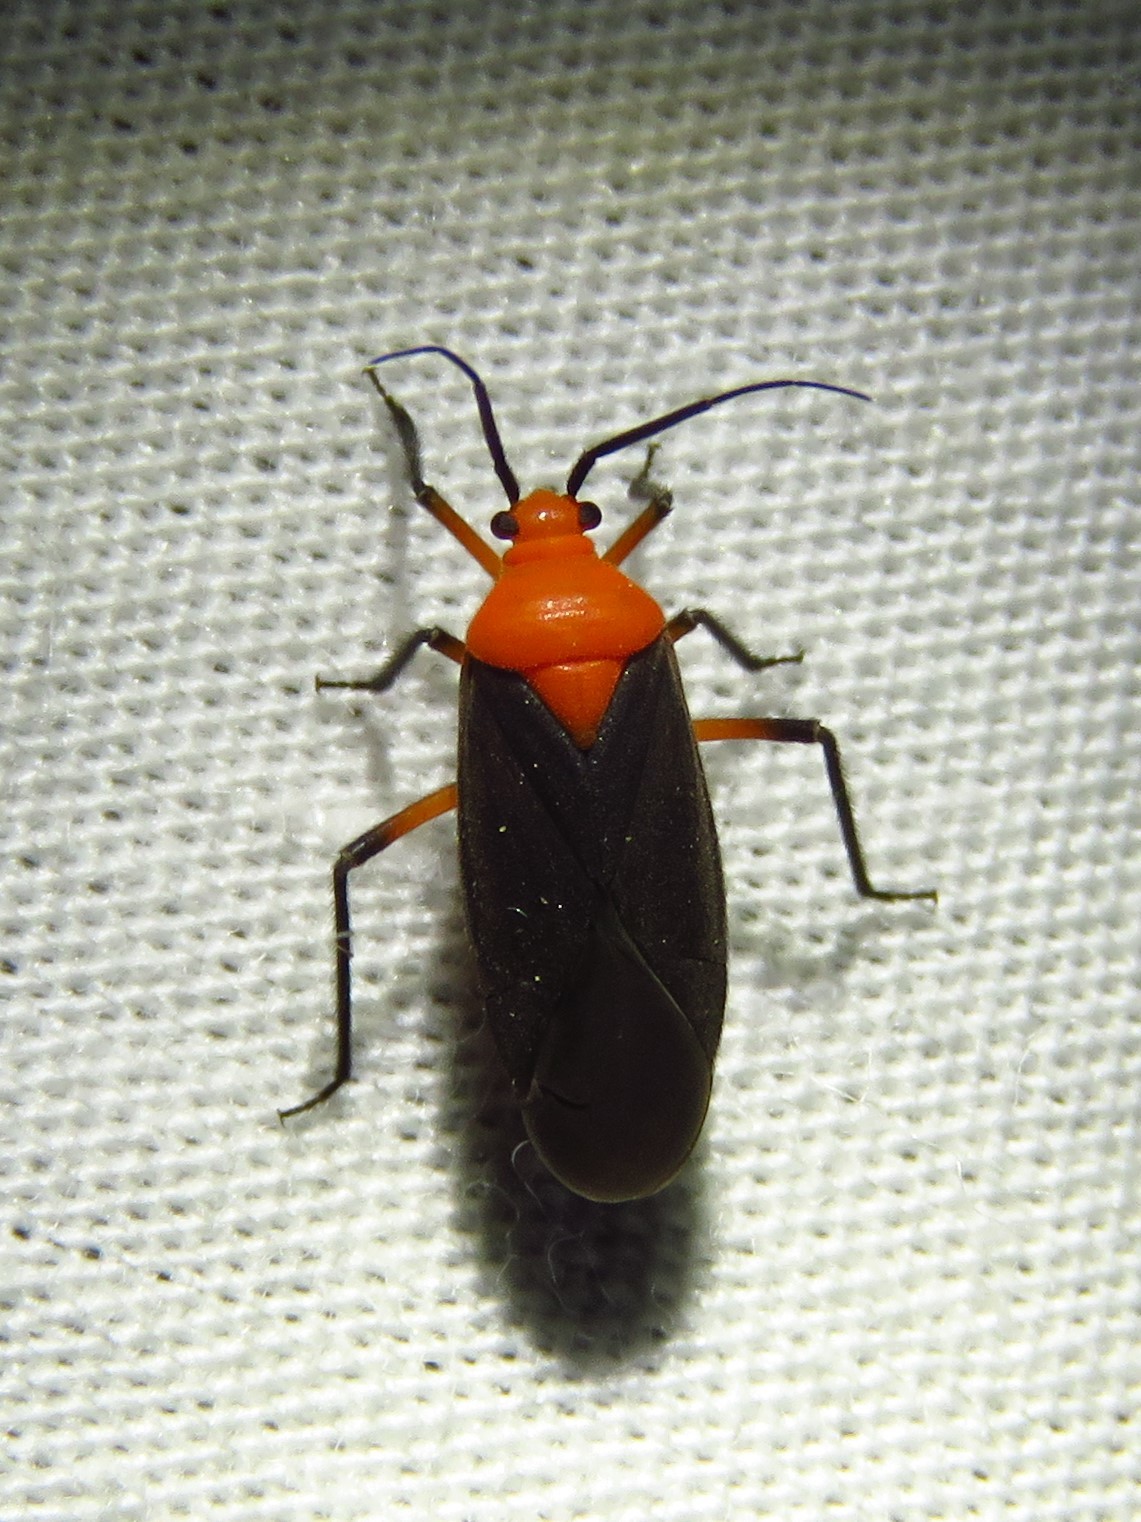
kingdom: Animalia
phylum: Arthropoda
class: Insecta
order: Hemiptera
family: Miridae
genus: Prepops
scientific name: Prepops atripennis
